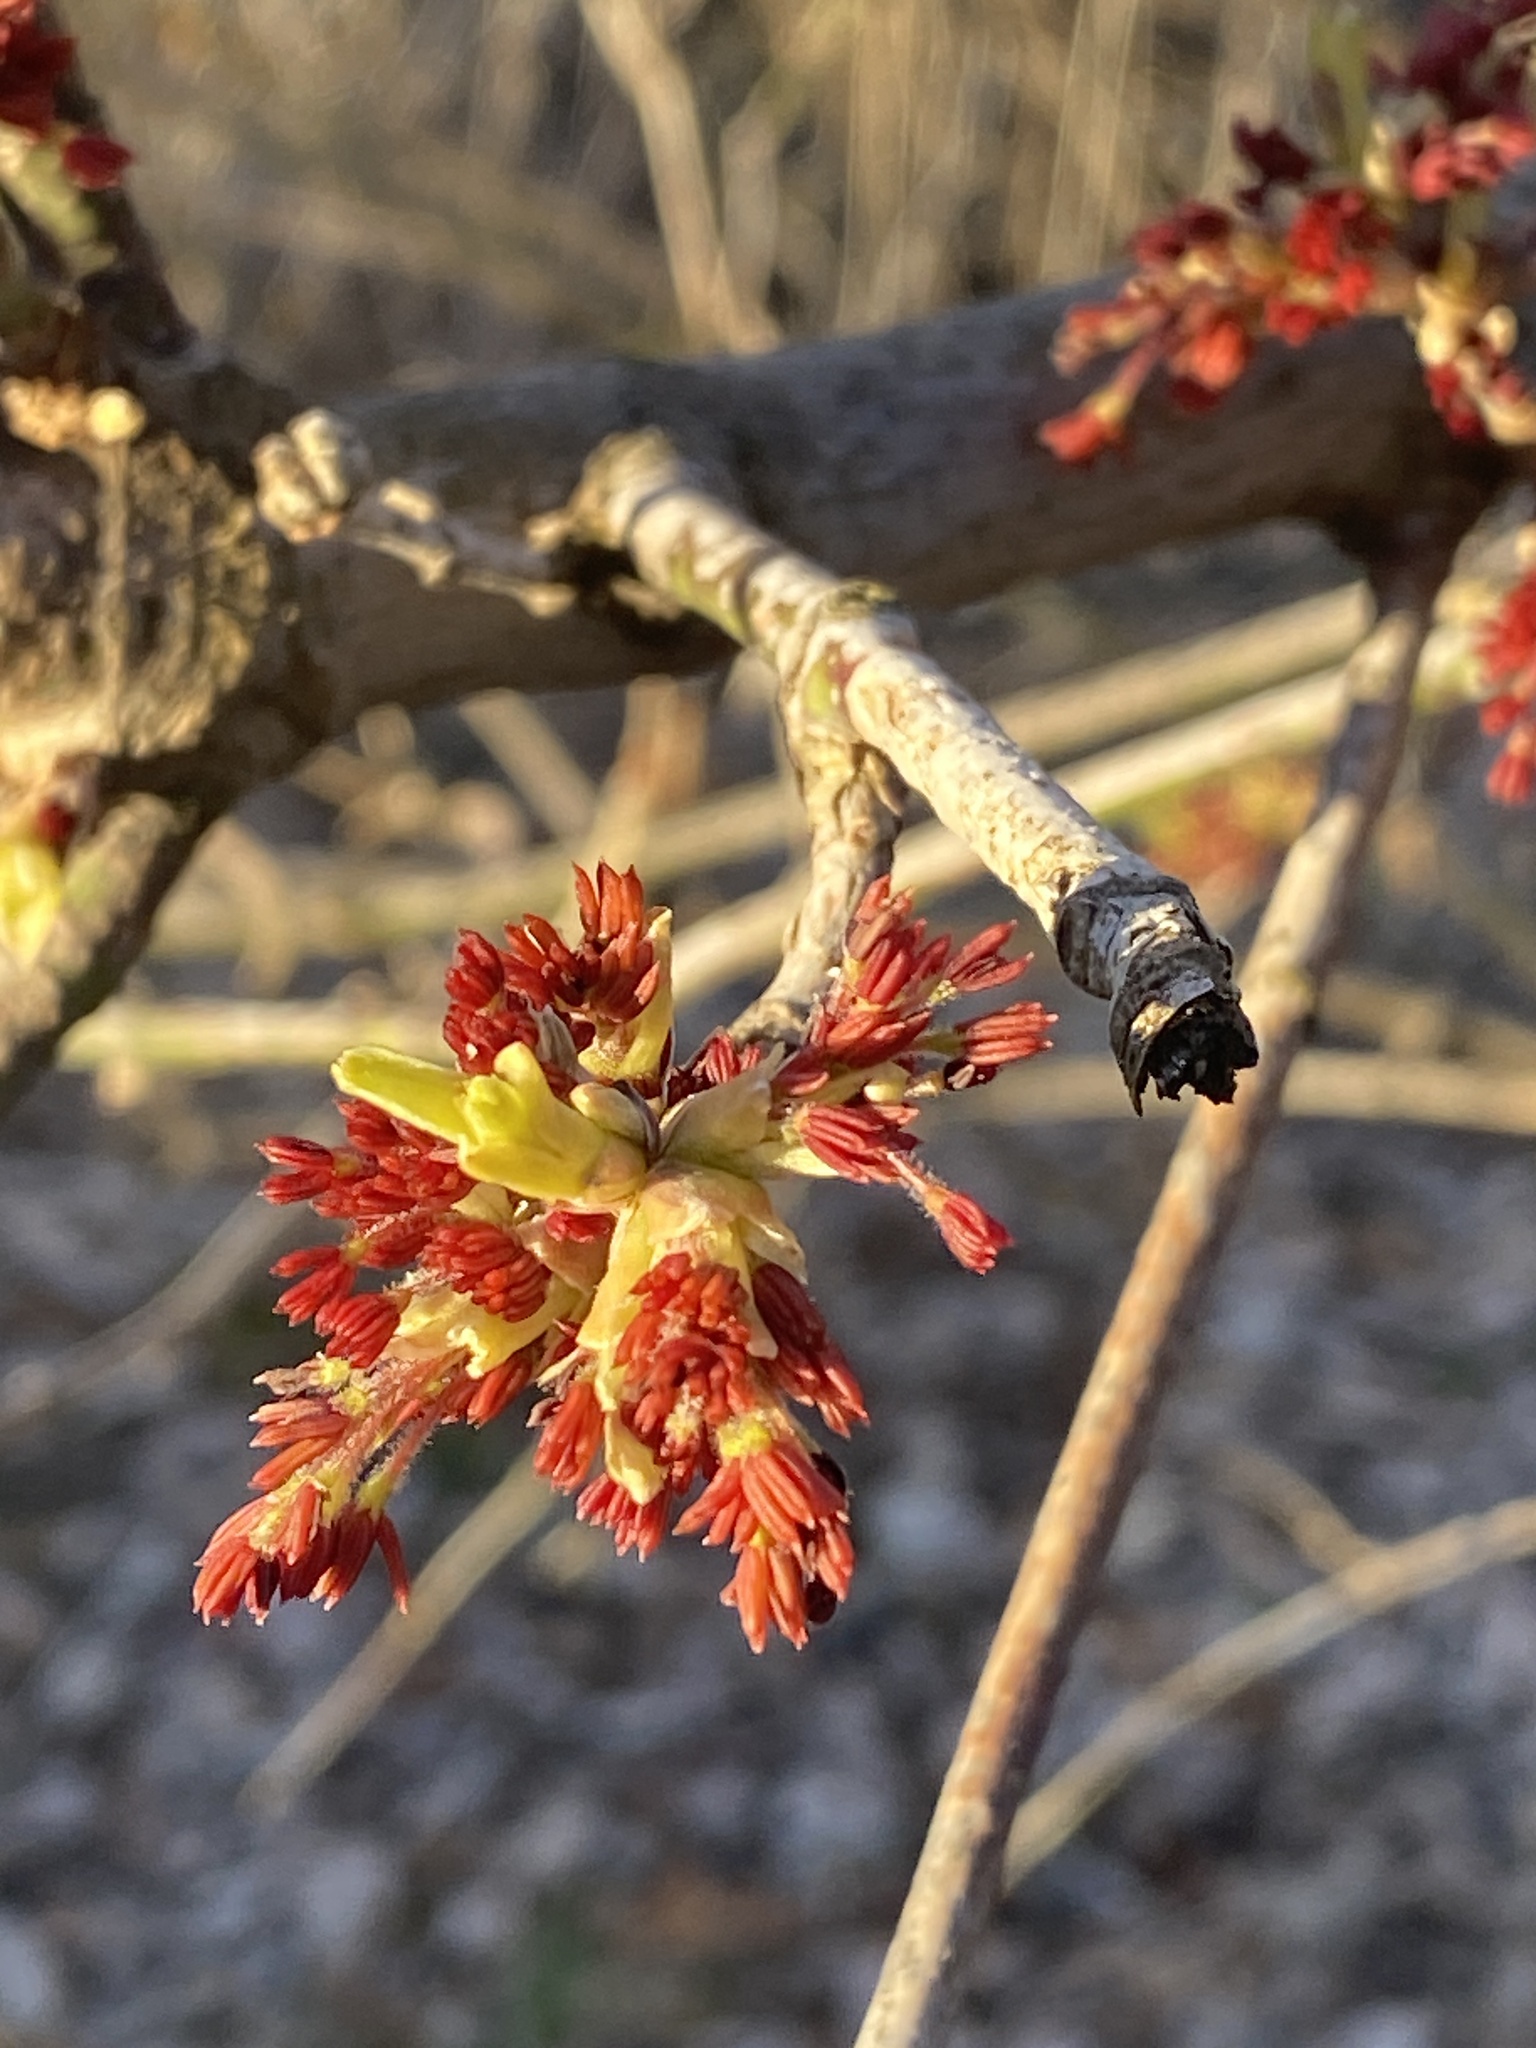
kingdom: Plantae
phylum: Tracheophyta
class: Magnoliopsida
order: Sapindales
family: Sapindaceae
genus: Acer
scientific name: Acer negundo
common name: Ashleaf maple
